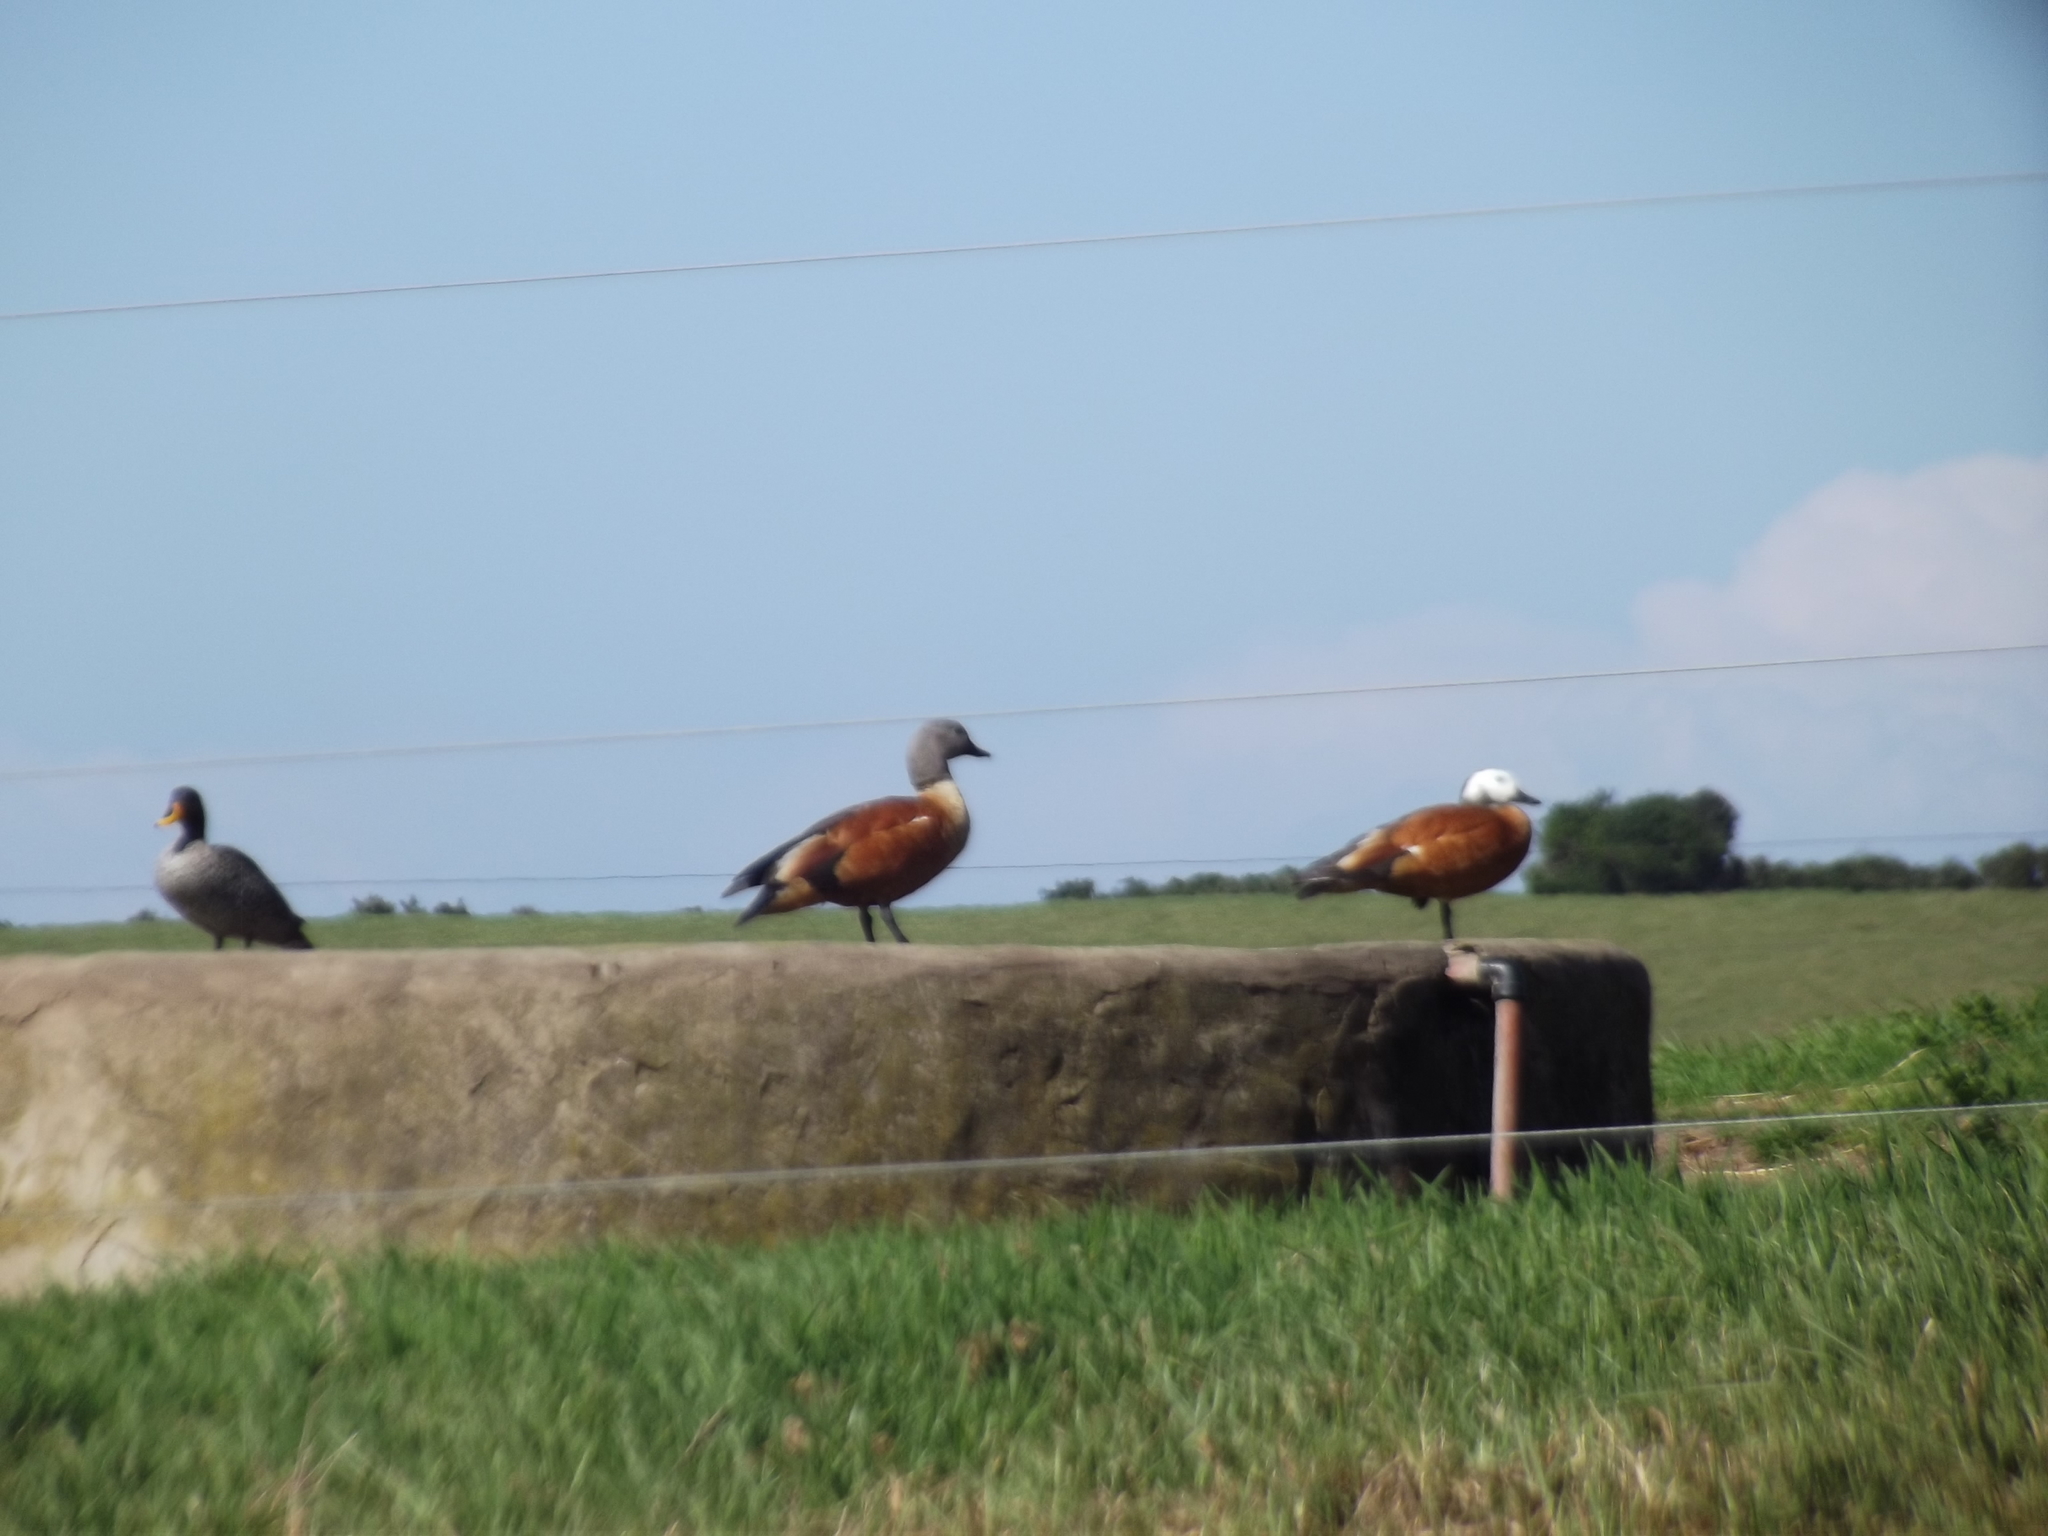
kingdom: Animalia
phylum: Chordata
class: Aves
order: Anseriformes
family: Anatidae
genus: Tadorna
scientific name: Tadorna cana
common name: South african shelduck
